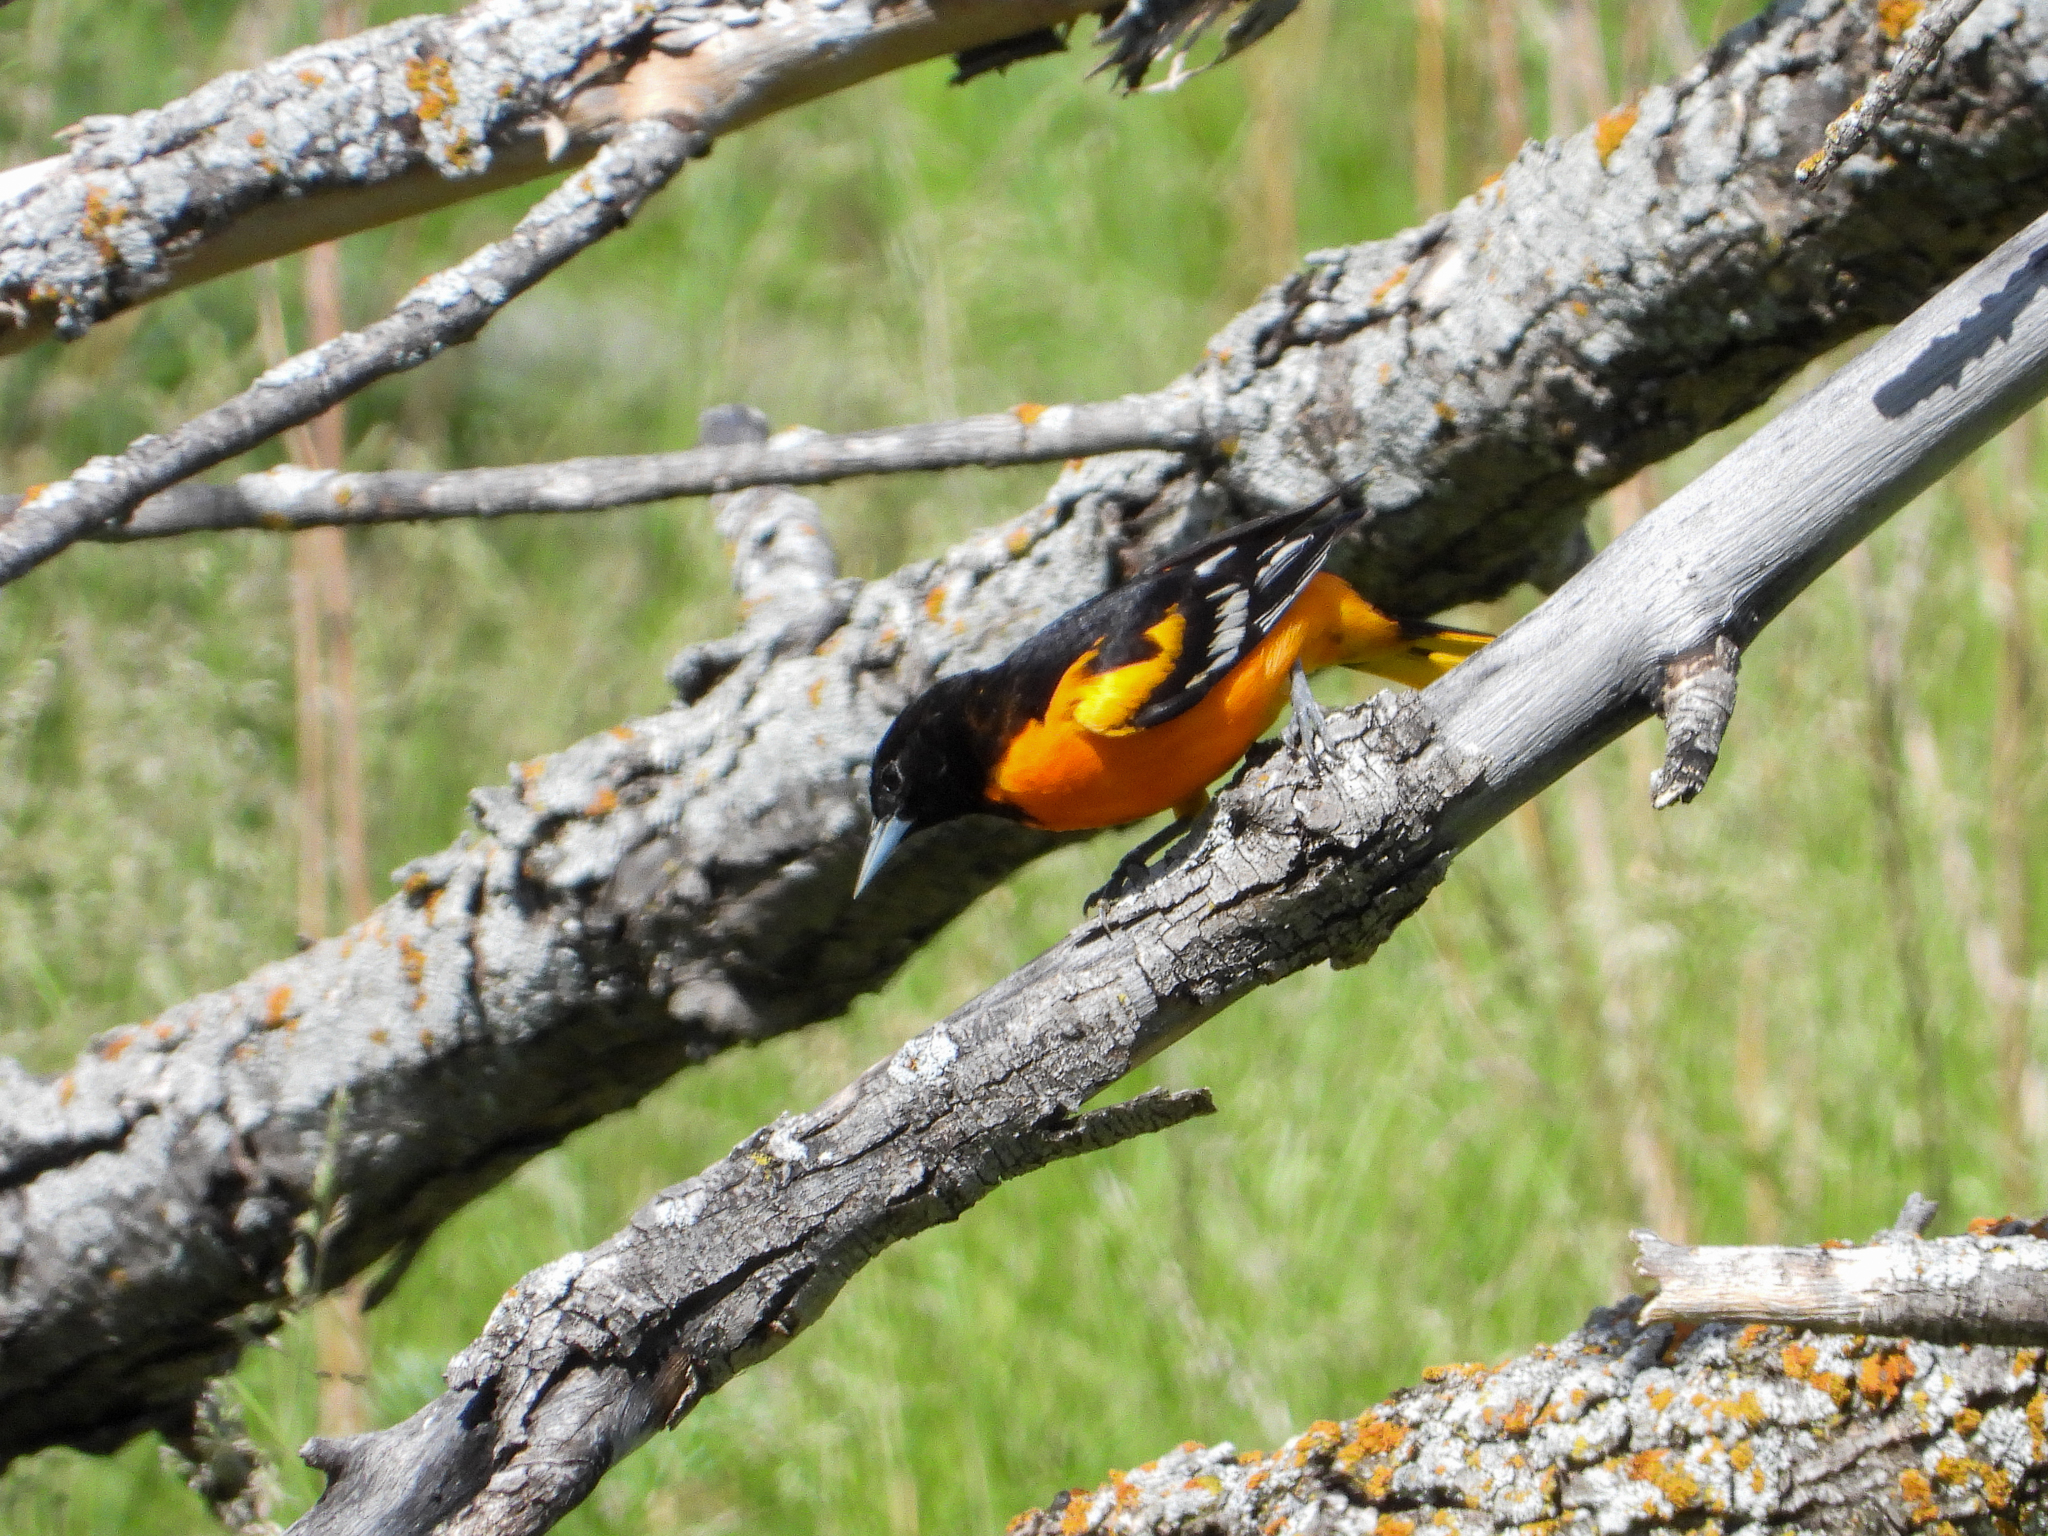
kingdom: Animalia
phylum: Chordata
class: Aves
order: Passeriformes
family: Icteridae
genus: Icterus
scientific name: Icterus galbula
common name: Baltimore oriole
